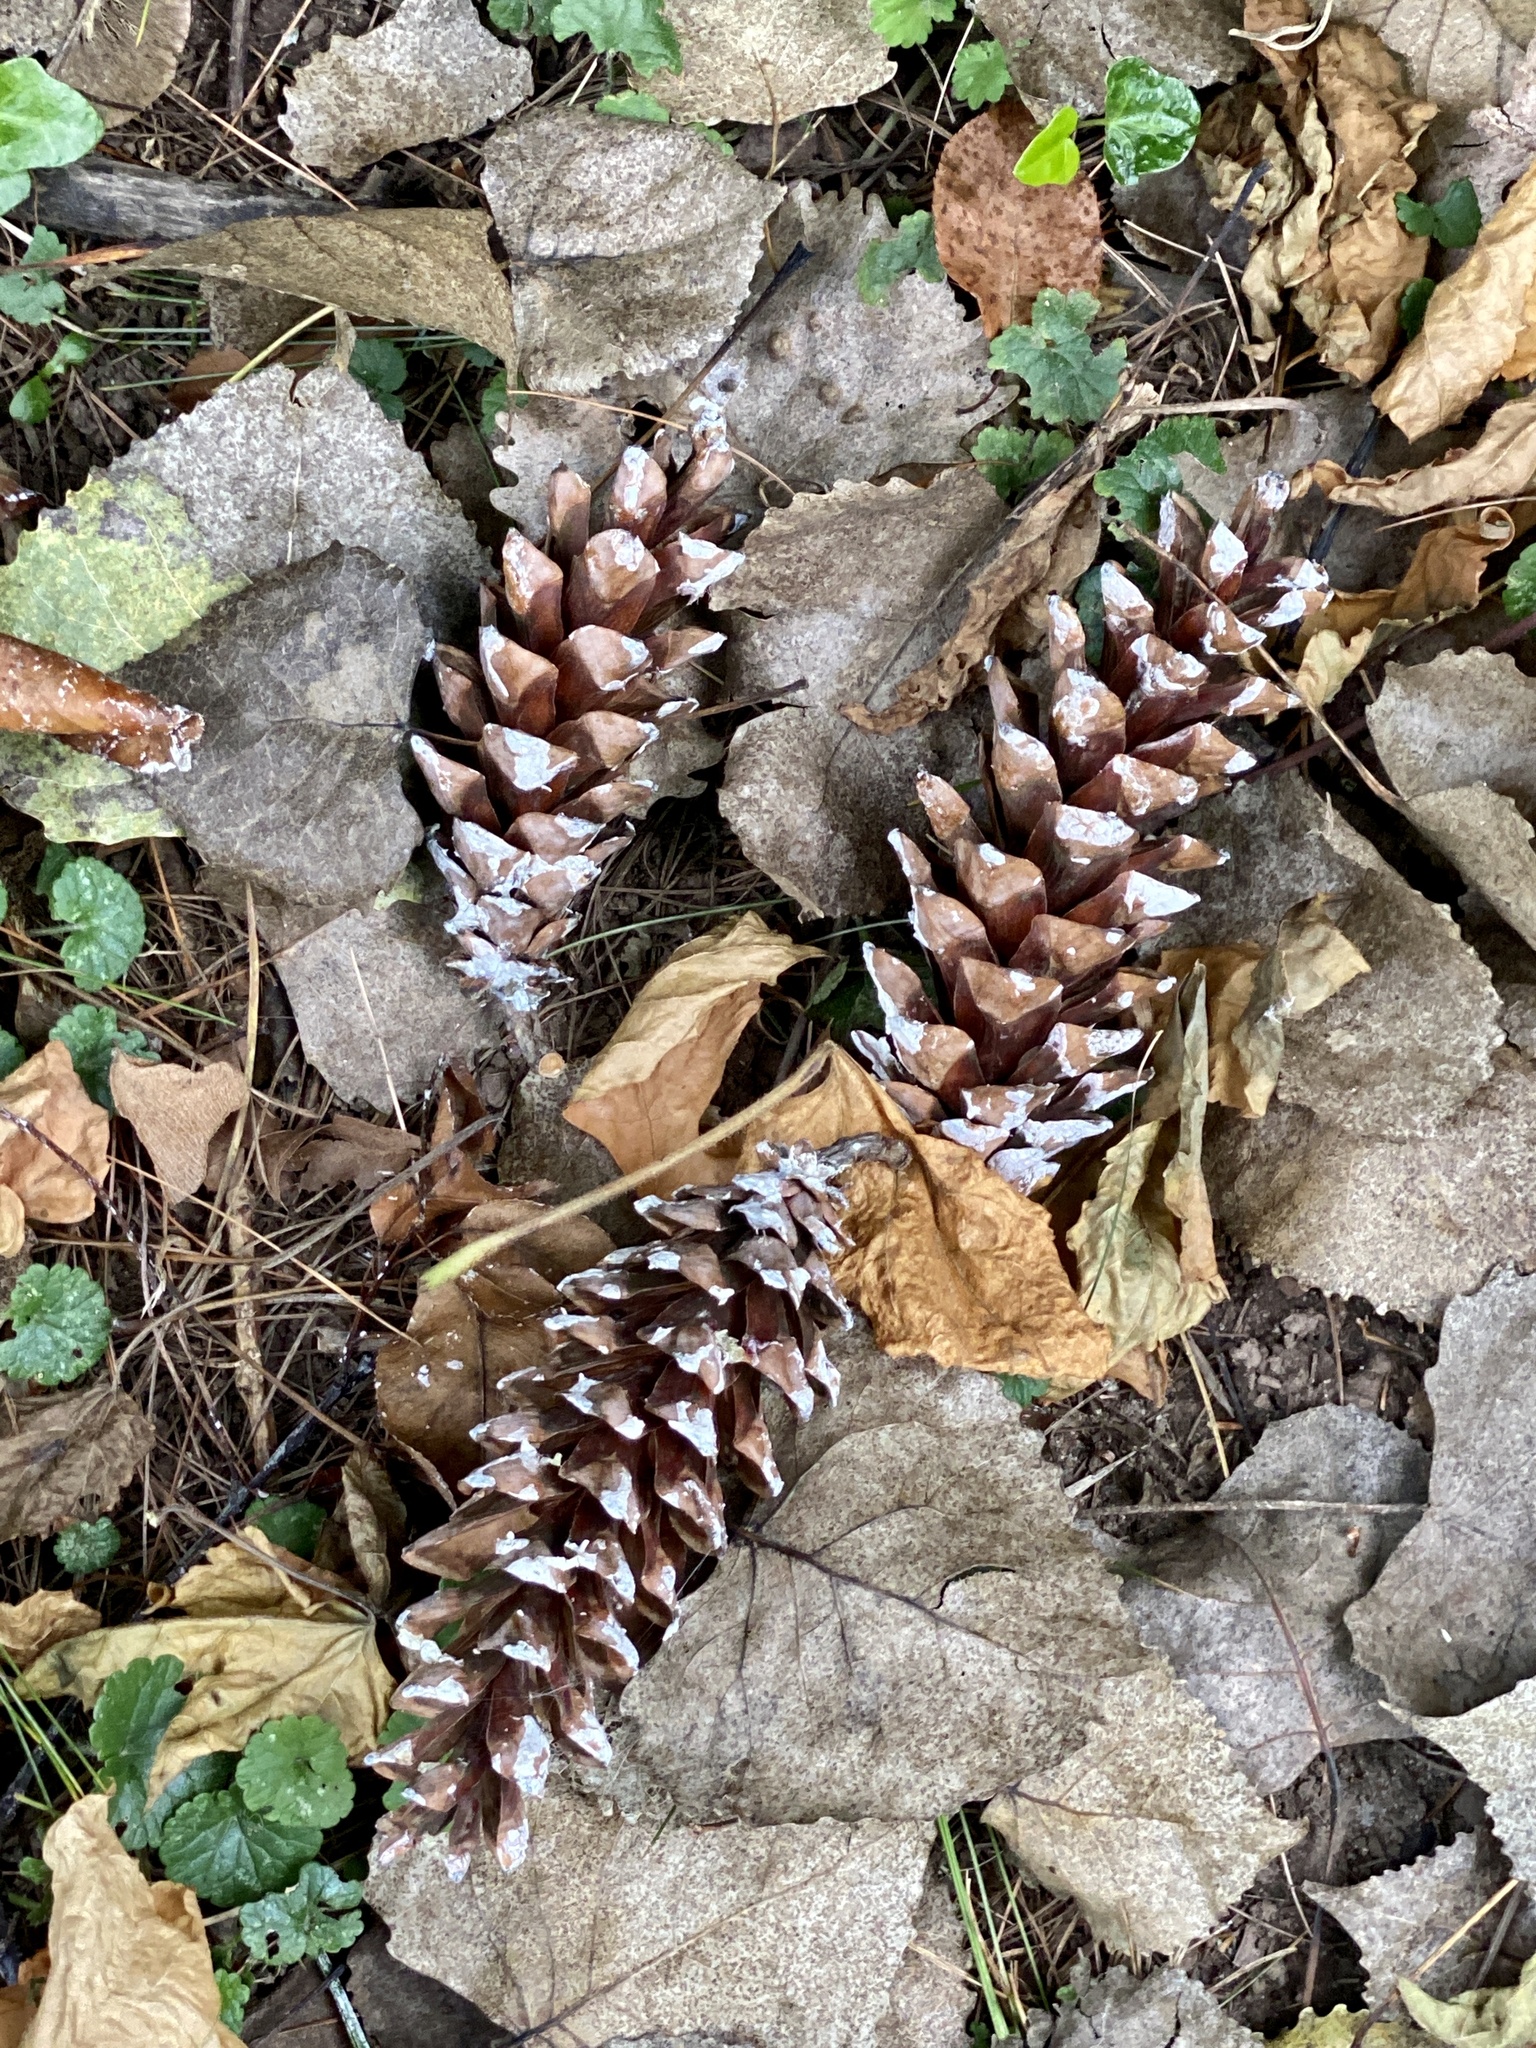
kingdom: Plantae
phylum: Tracheophyta
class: Pinopsida
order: Pinales
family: Pinaceae
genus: Pinus
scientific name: Pinus strobus
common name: Weymouth pine
